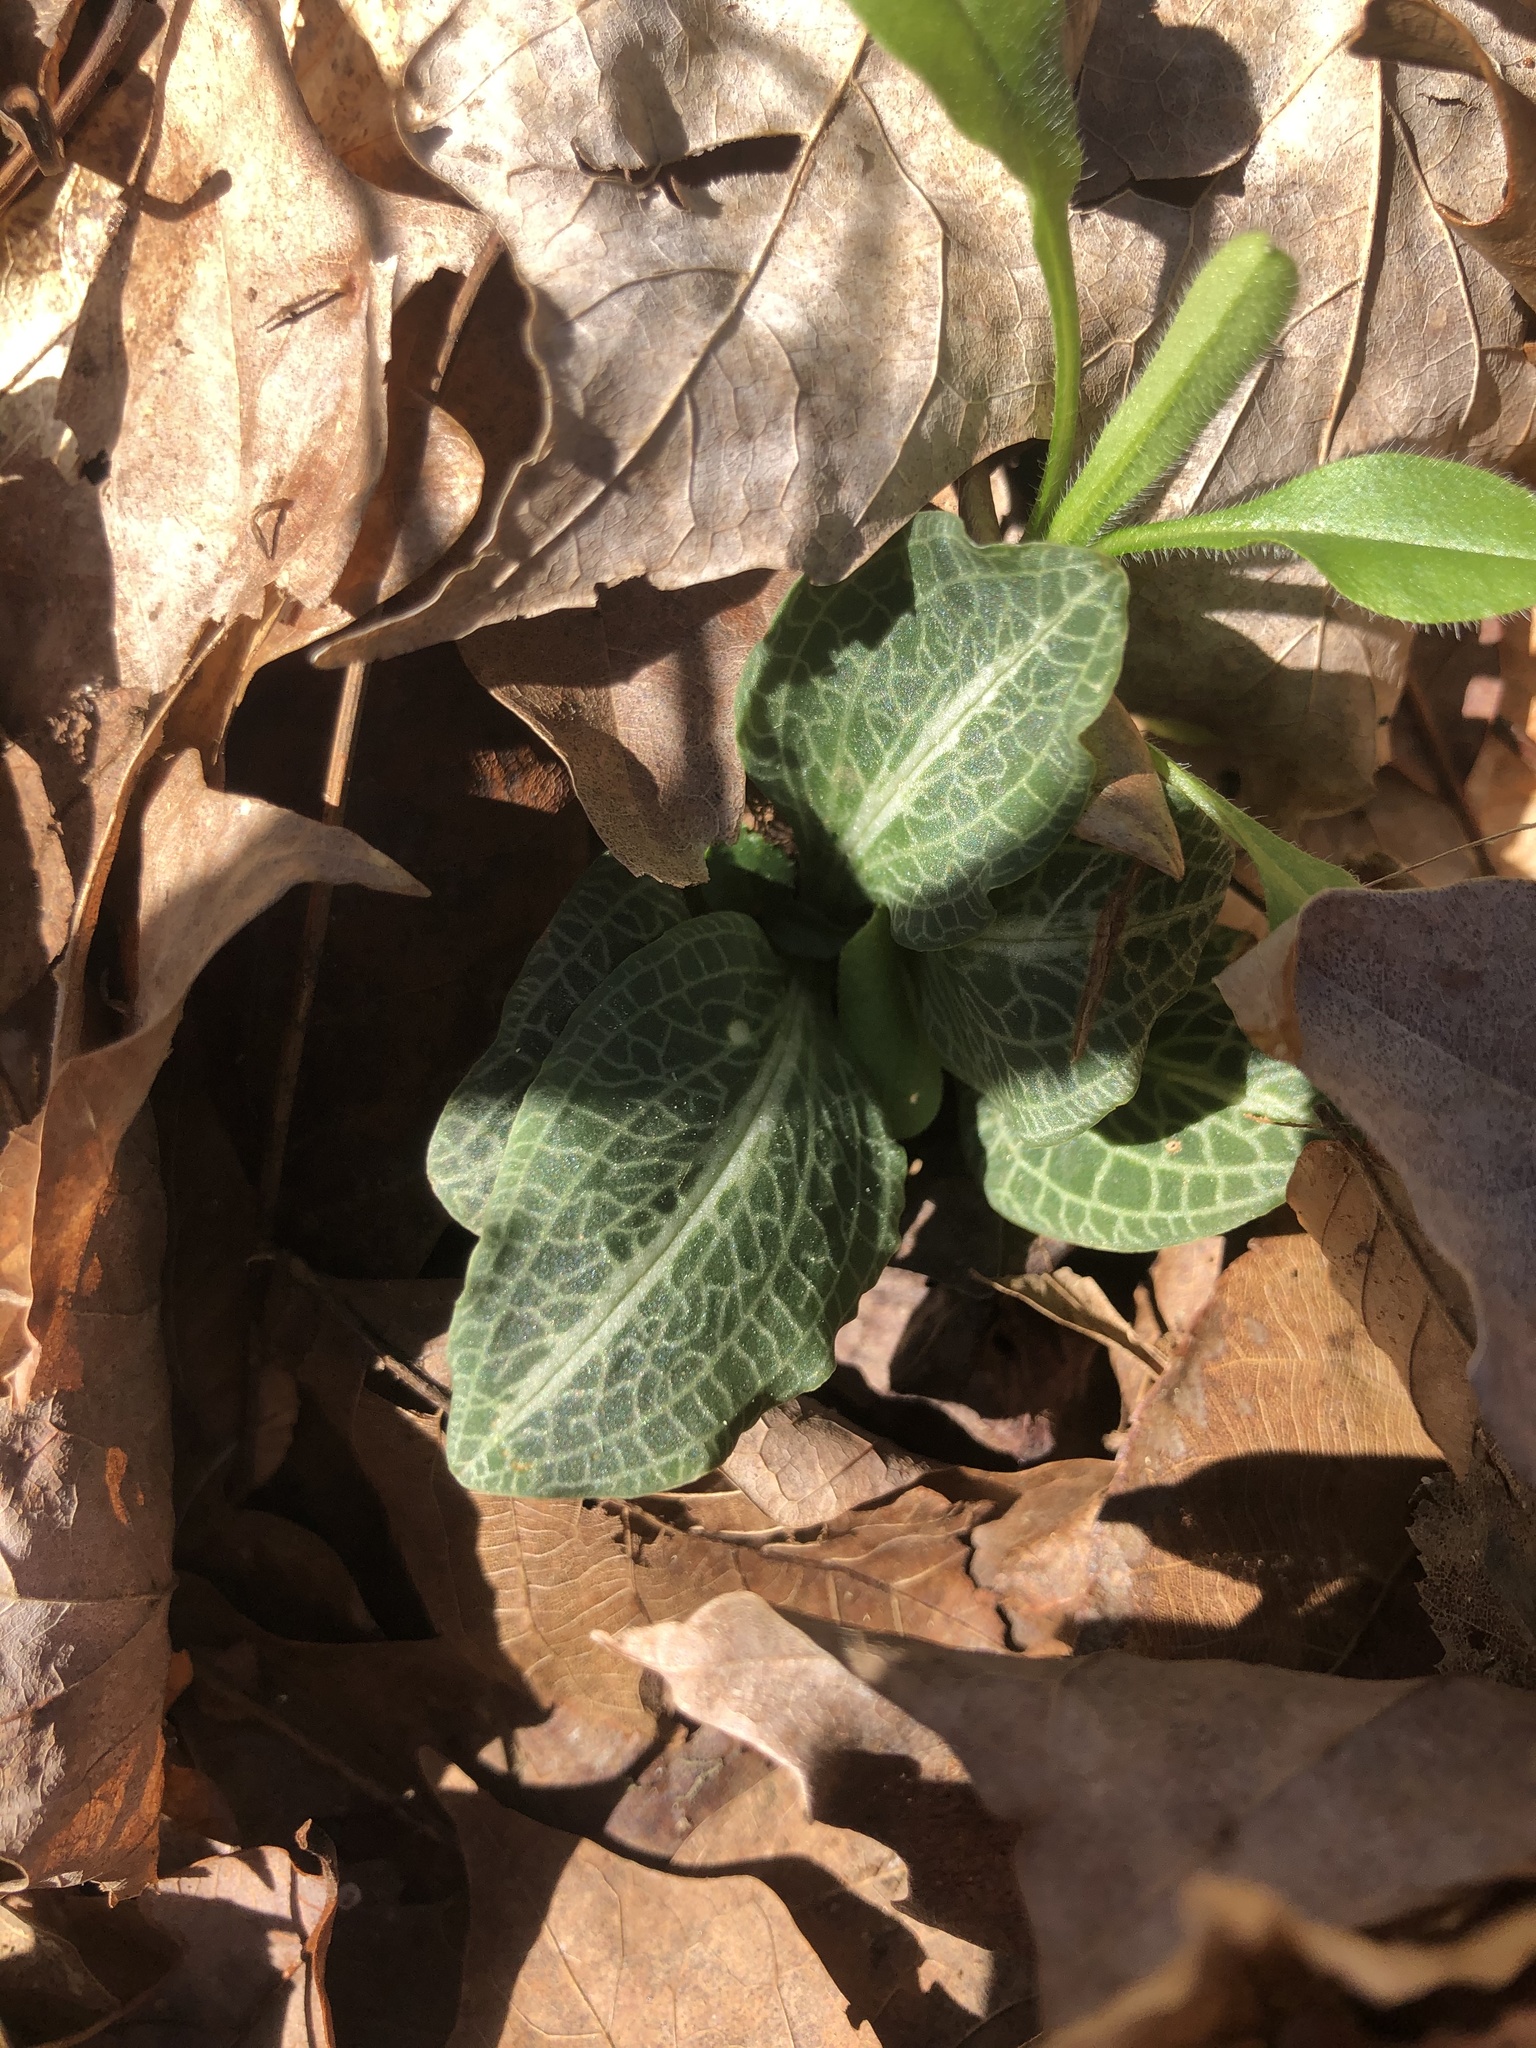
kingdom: Plantae
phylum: Tracheophyta
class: Liliopsida
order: Asparagales
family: Orchidaceae
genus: Goodyera
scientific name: Goodyera pubescens
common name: Downy rattlesnake-plantain
